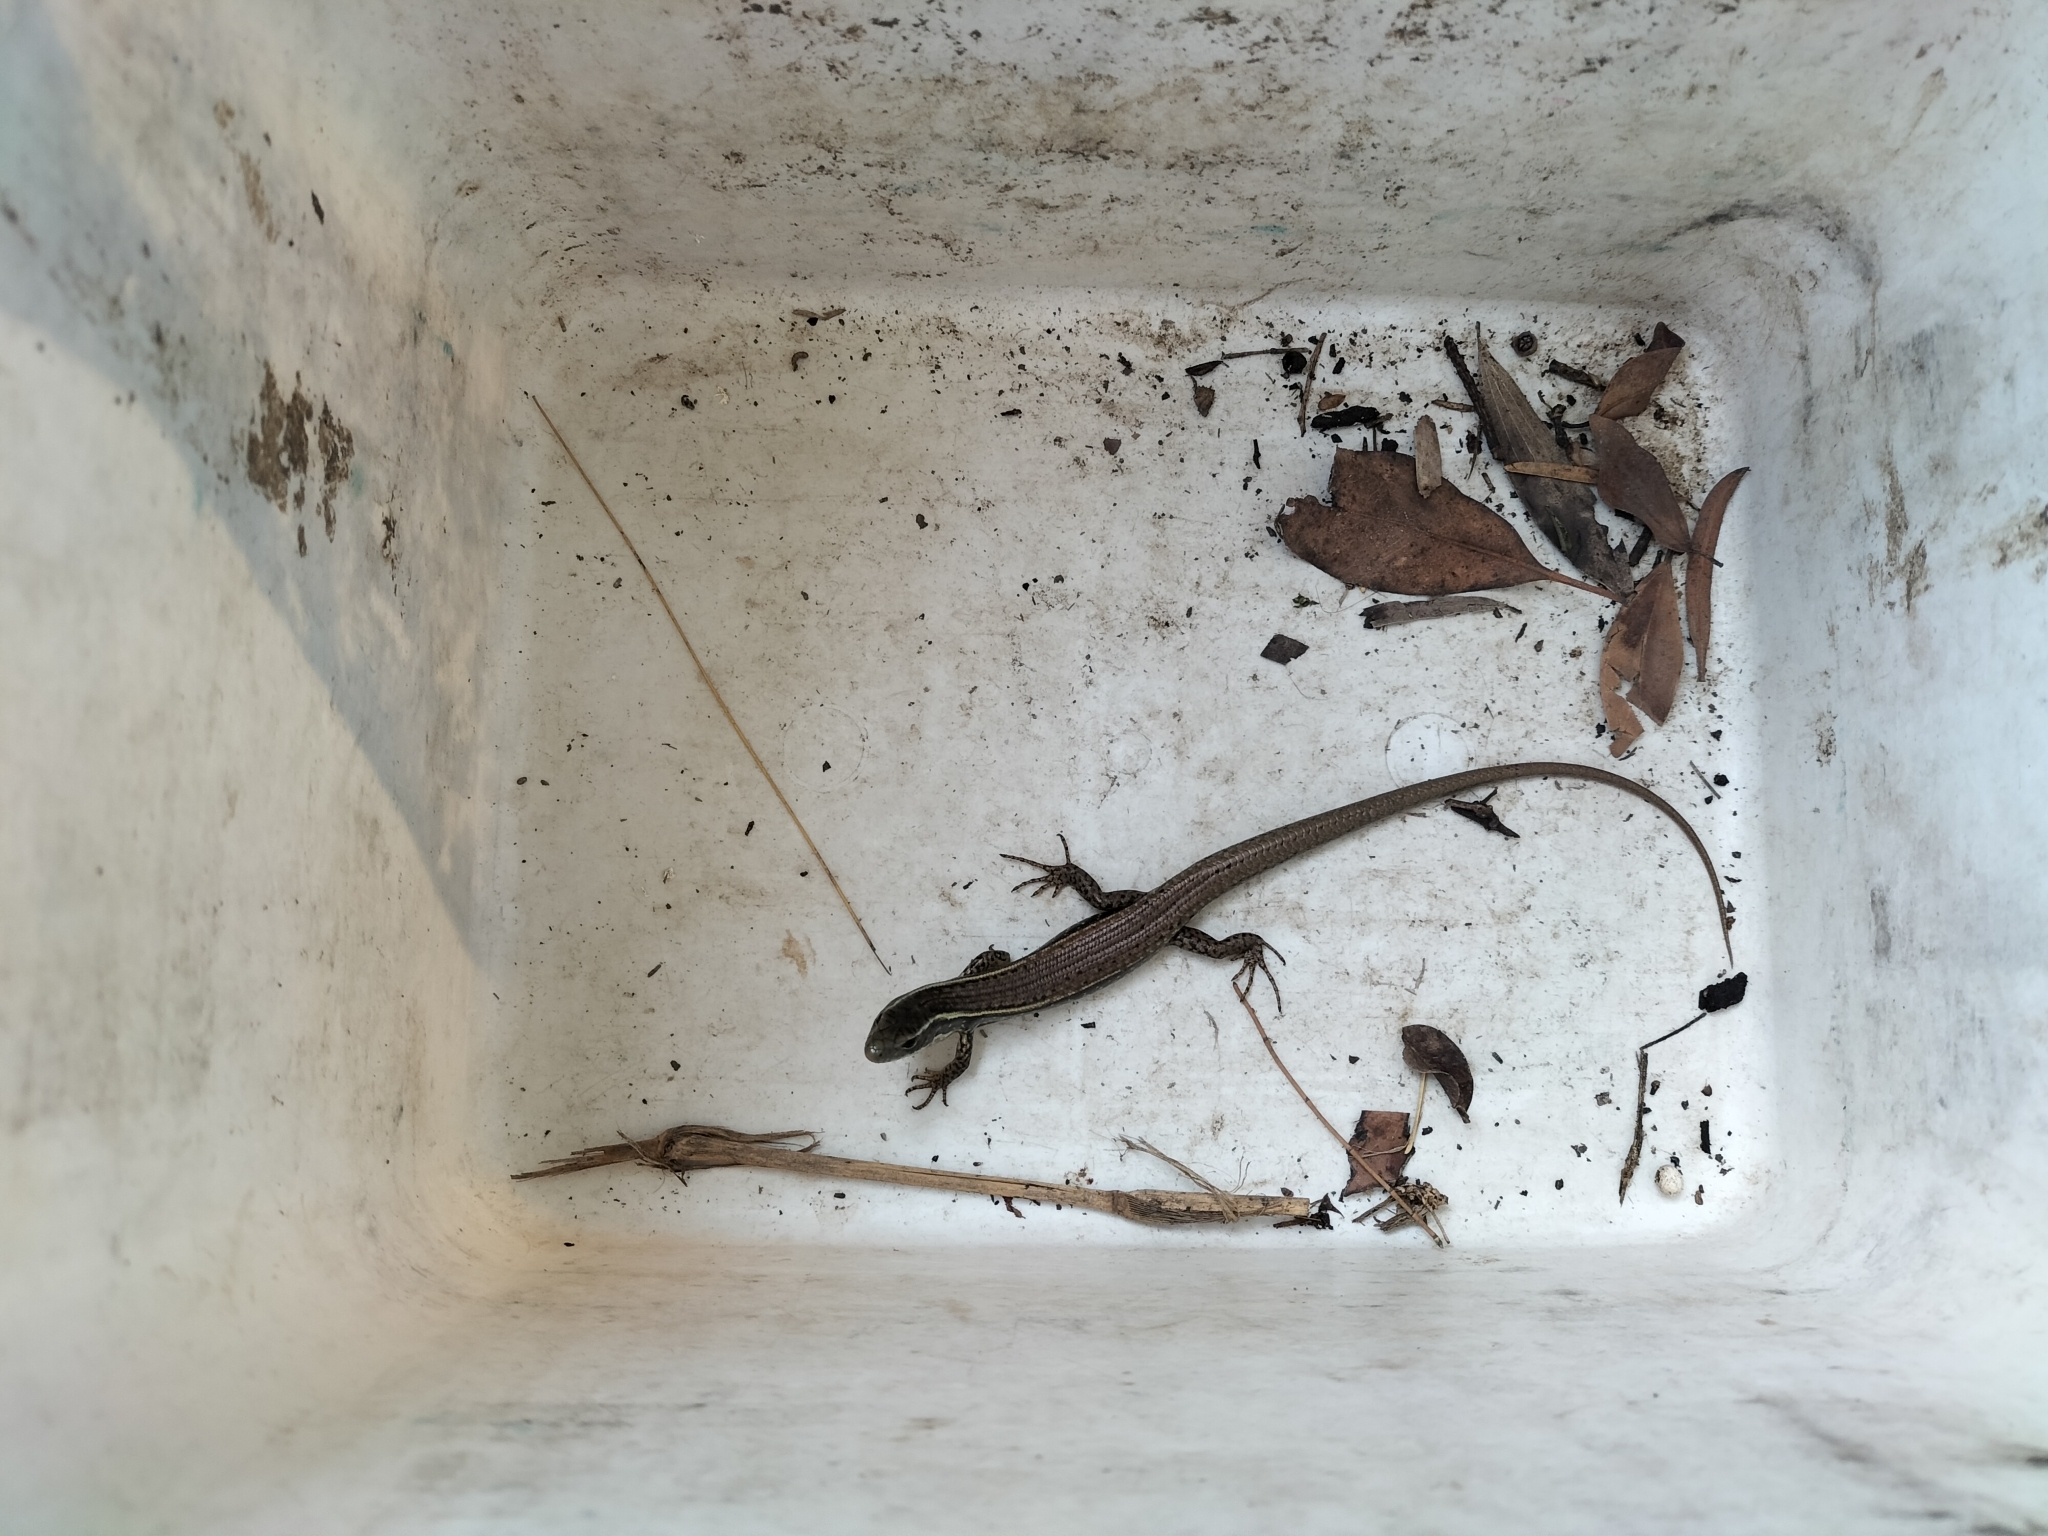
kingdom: Animalia
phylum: Chordata
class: Squamata
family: Scincidae
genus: Eulamprus
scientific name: Eulamprus quoyii
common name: Eastern water skink
